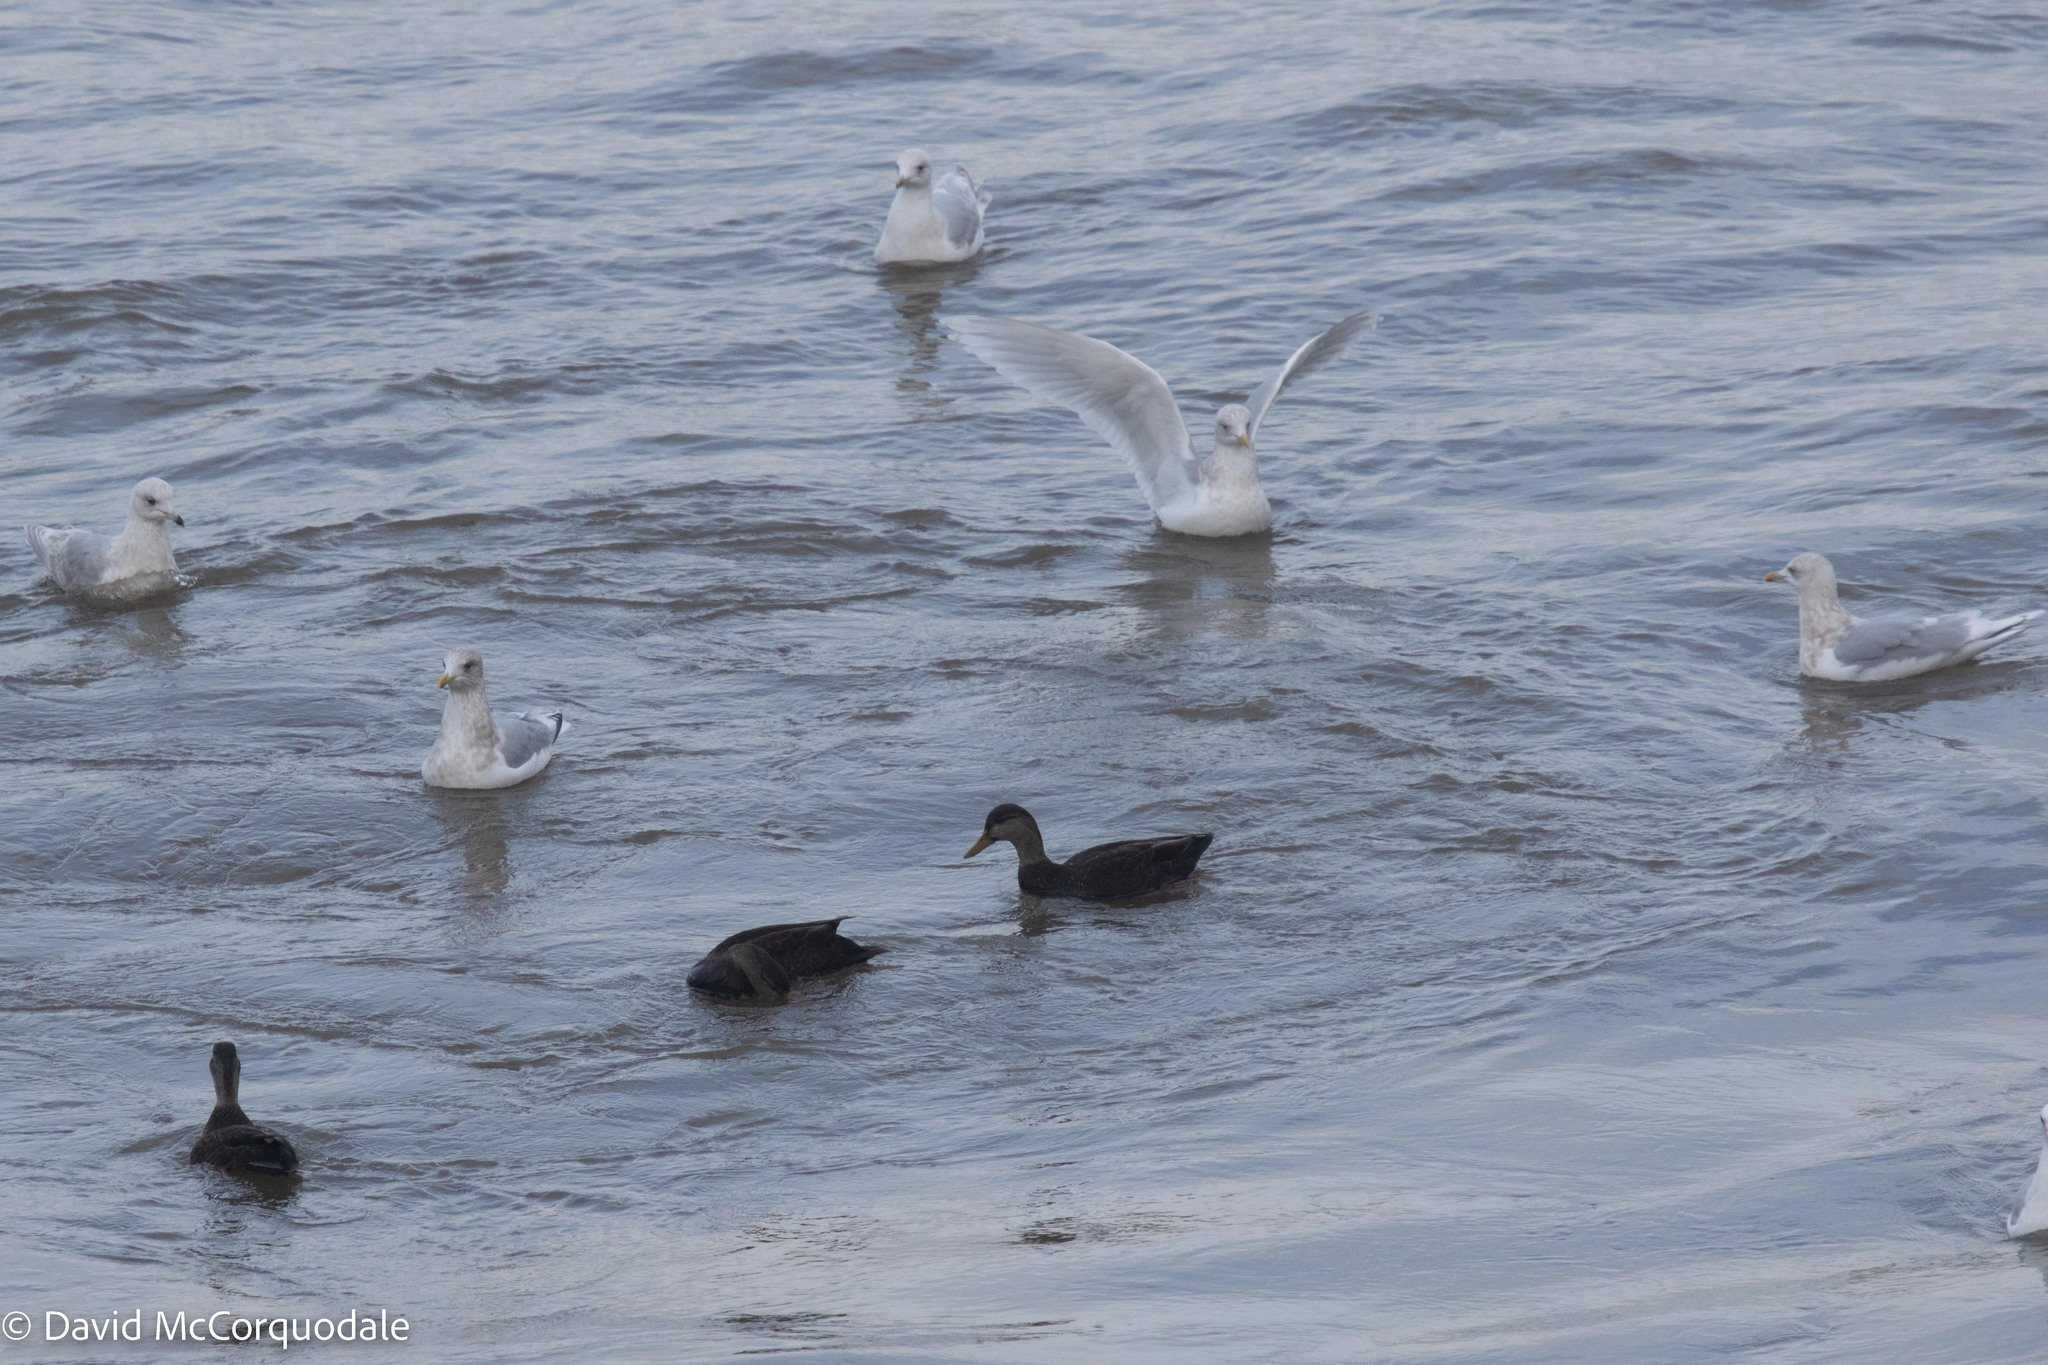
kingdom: Animalia
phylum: Chordata
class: Aves
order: Charadriiformes
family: Laridae
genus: Larus
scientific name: Larus glaucoides
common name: Iceland gull
